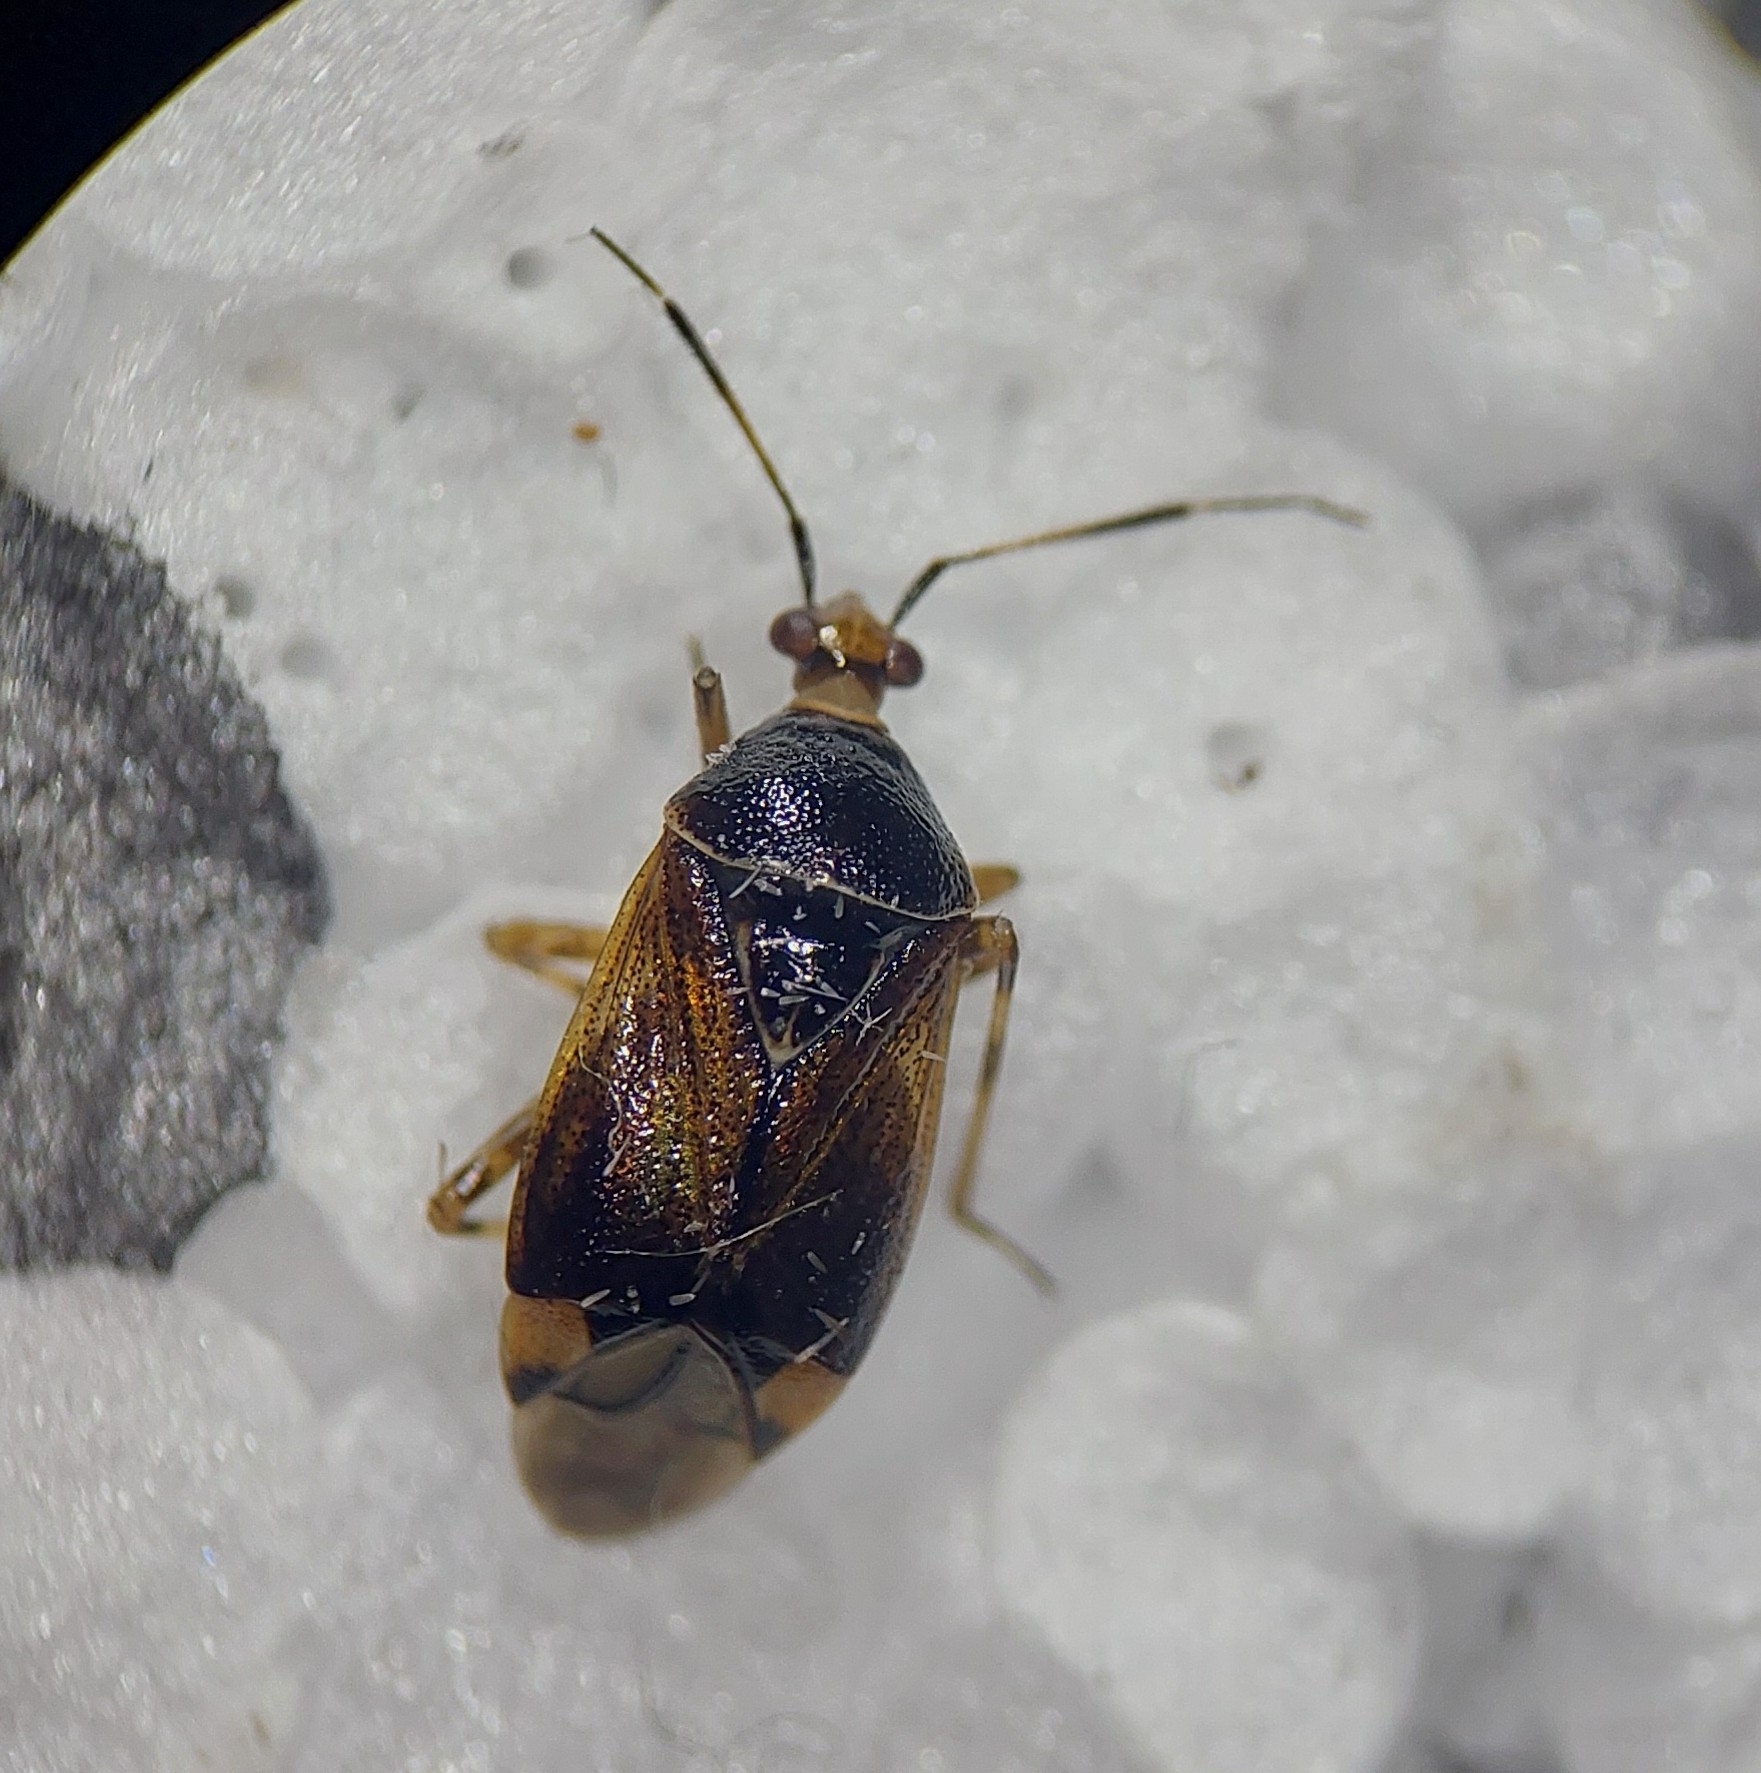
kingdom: Animalia
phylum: Arthropoda
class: Insecta
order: Hemiptera
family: Miridae
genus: Deraeocoris
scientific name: Deraeocoris flavilinea
